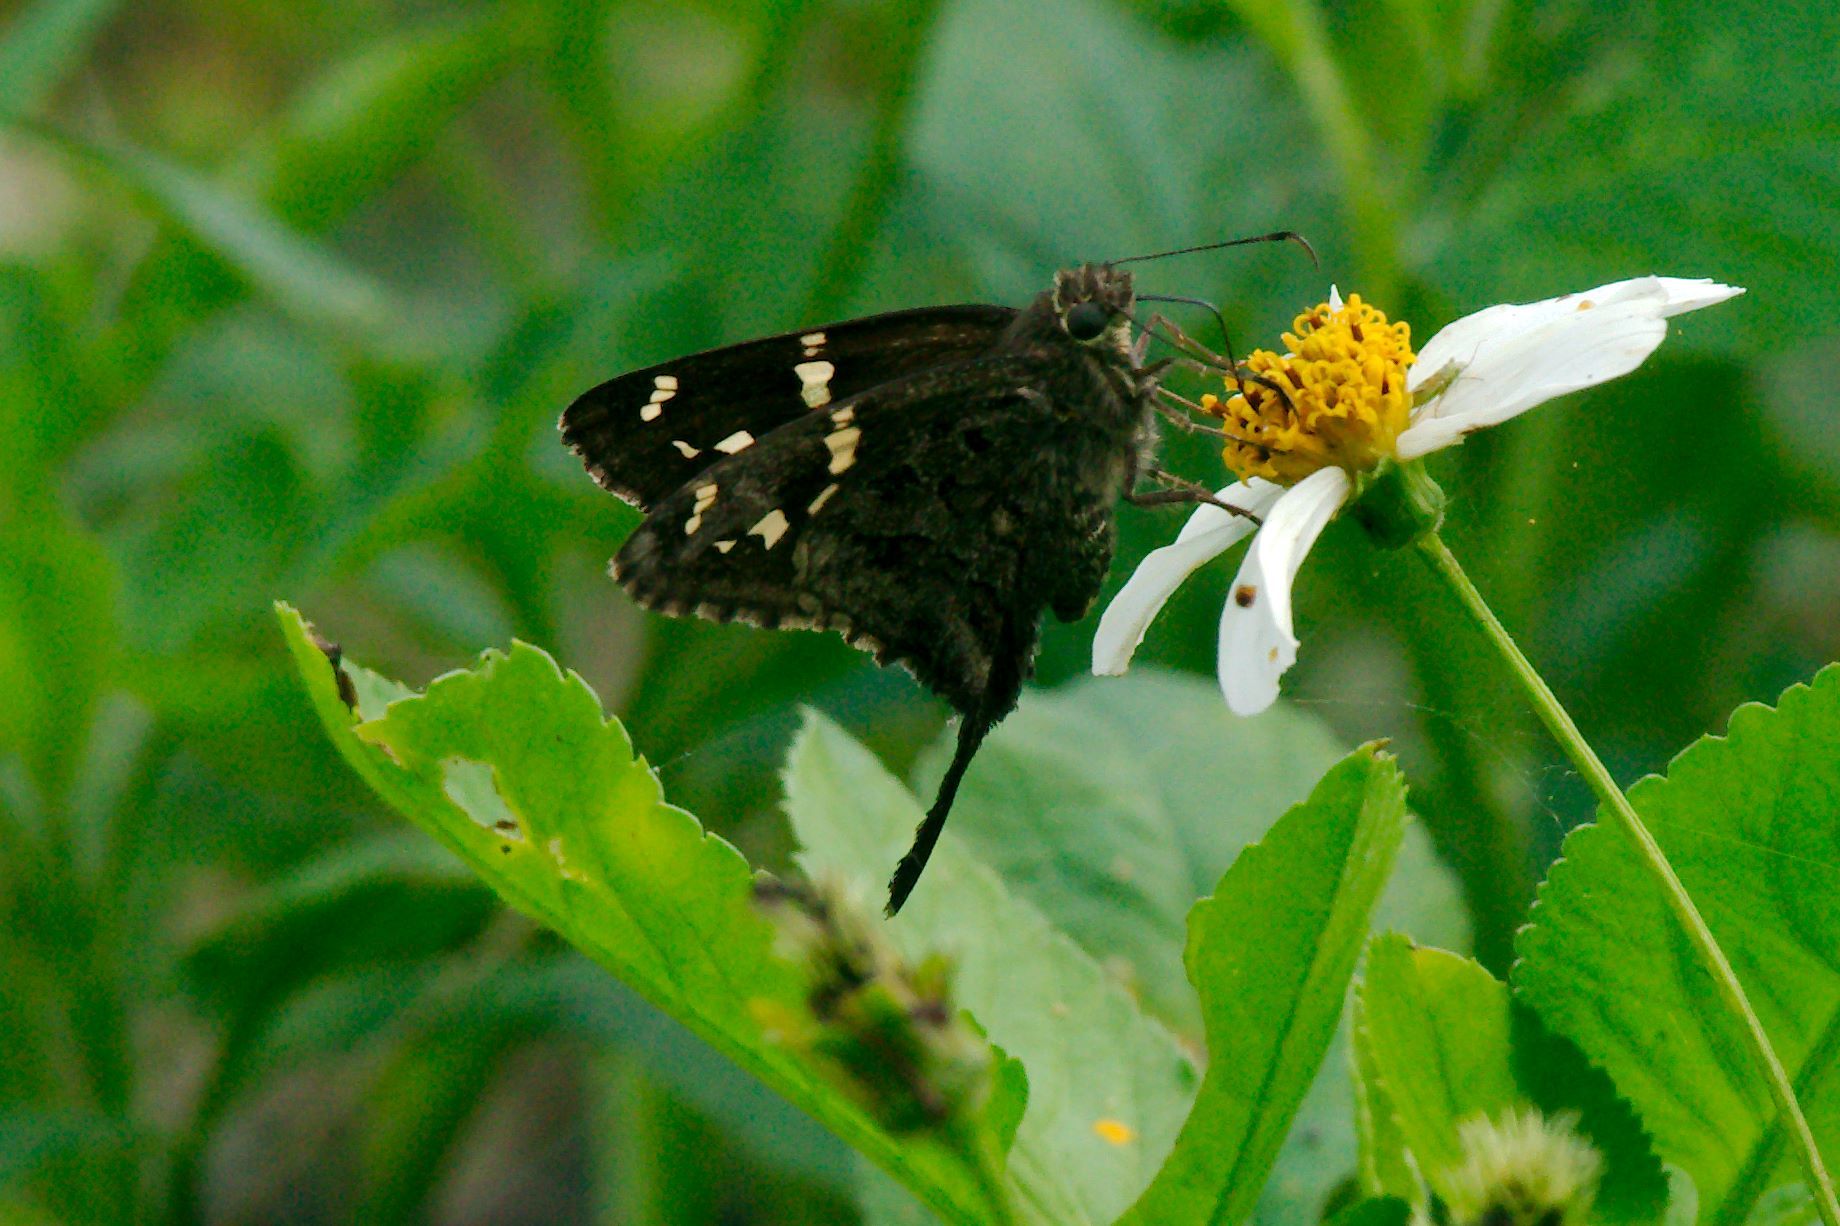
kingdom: Animalia
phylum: Arthropoda
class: Insecta
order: Lepidoptera
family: Hesperiidae
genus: Thorybes
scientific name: Thorybes
